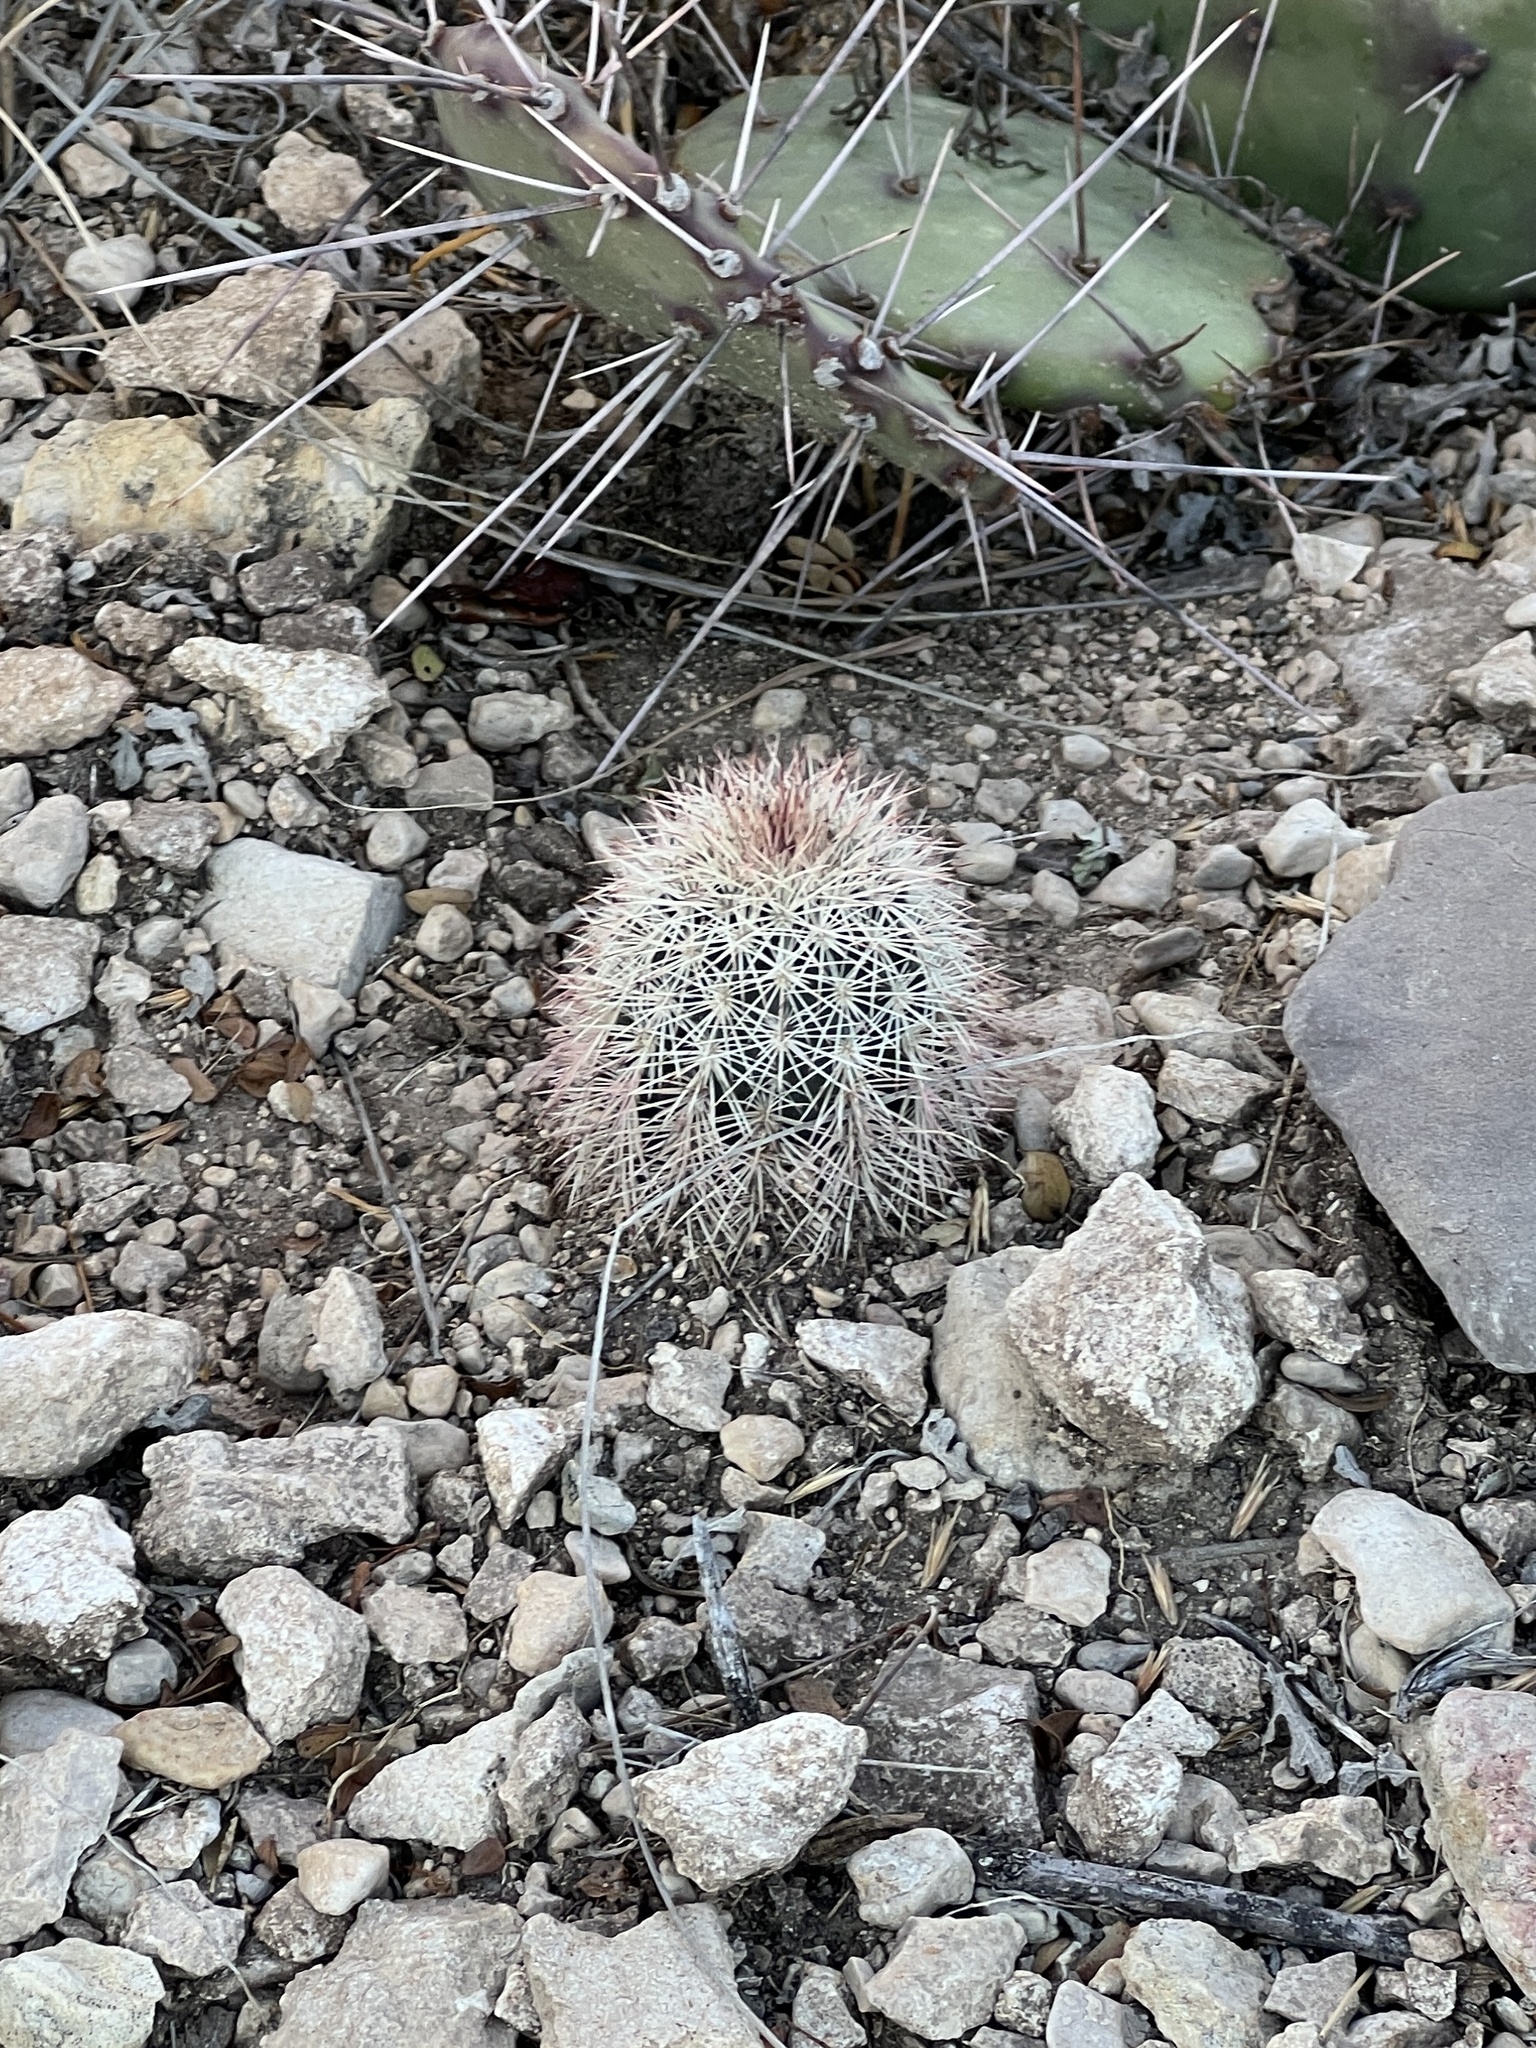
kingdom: Plantae
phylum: Tracheophyta
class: Magnoliopsida
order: Caryophyllales
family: Cactaceae
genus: Echinocereus
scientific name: Echinocereus dasyacanthus
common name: Spiny hedgehog cactus
